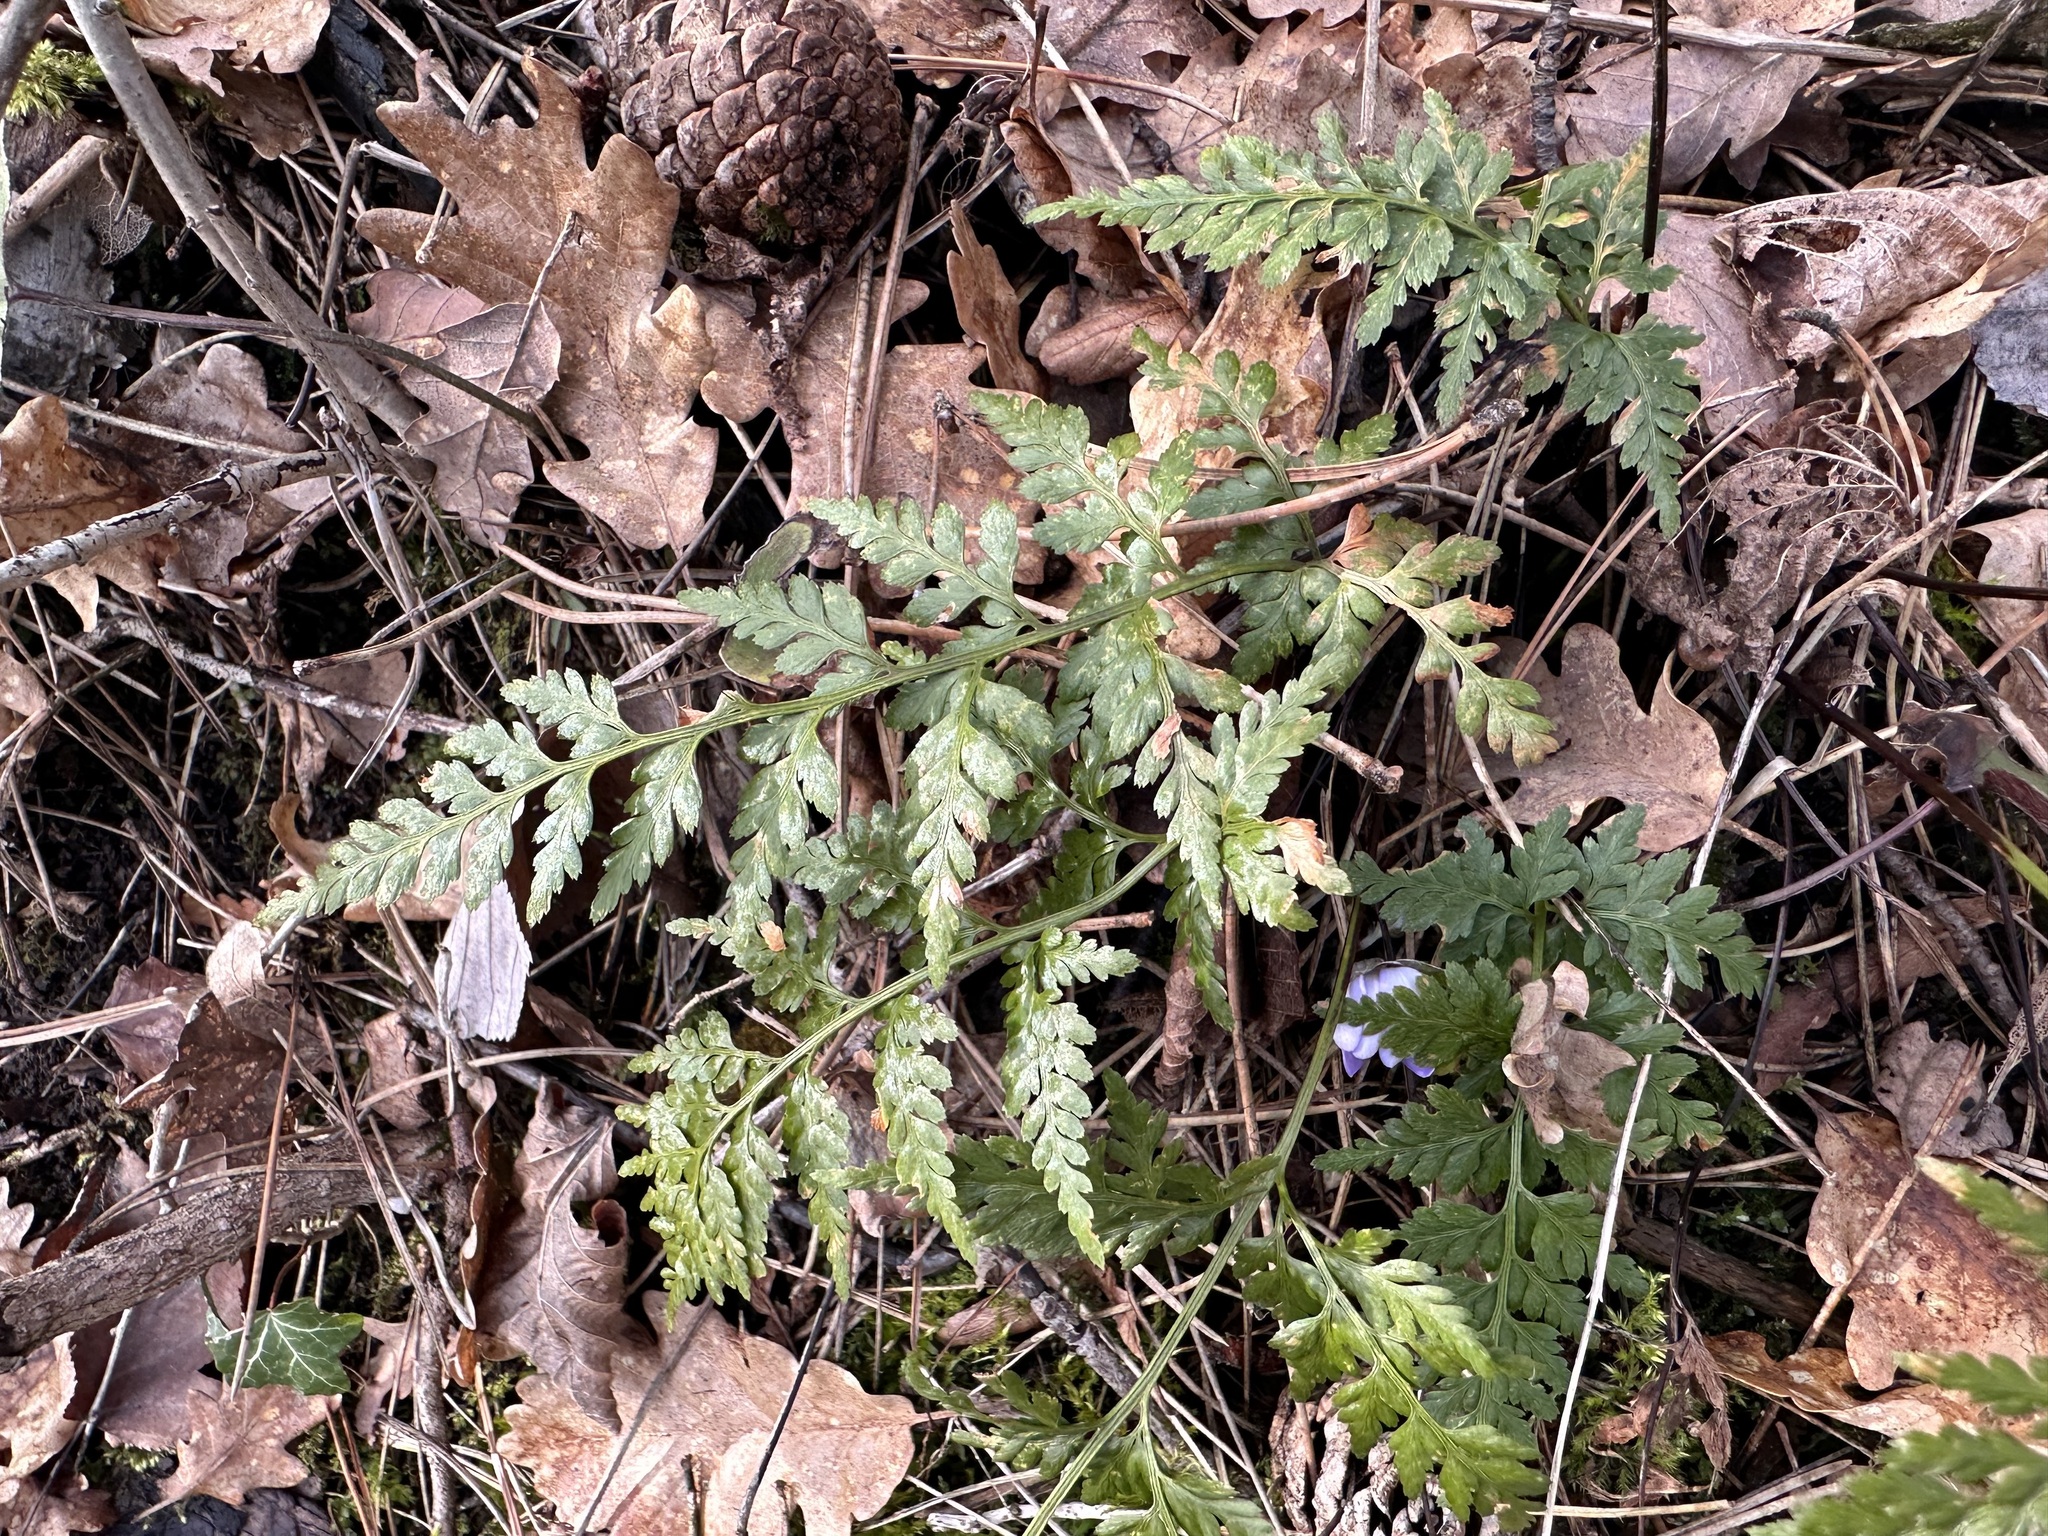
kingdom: Plantae
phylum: Tracheophyta
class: Polypodiopsida
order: Polypodiales
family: Aspleniaceae
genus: Asplenium
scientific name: Asplenium adiantum-nigrum
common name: Black spleenwort
